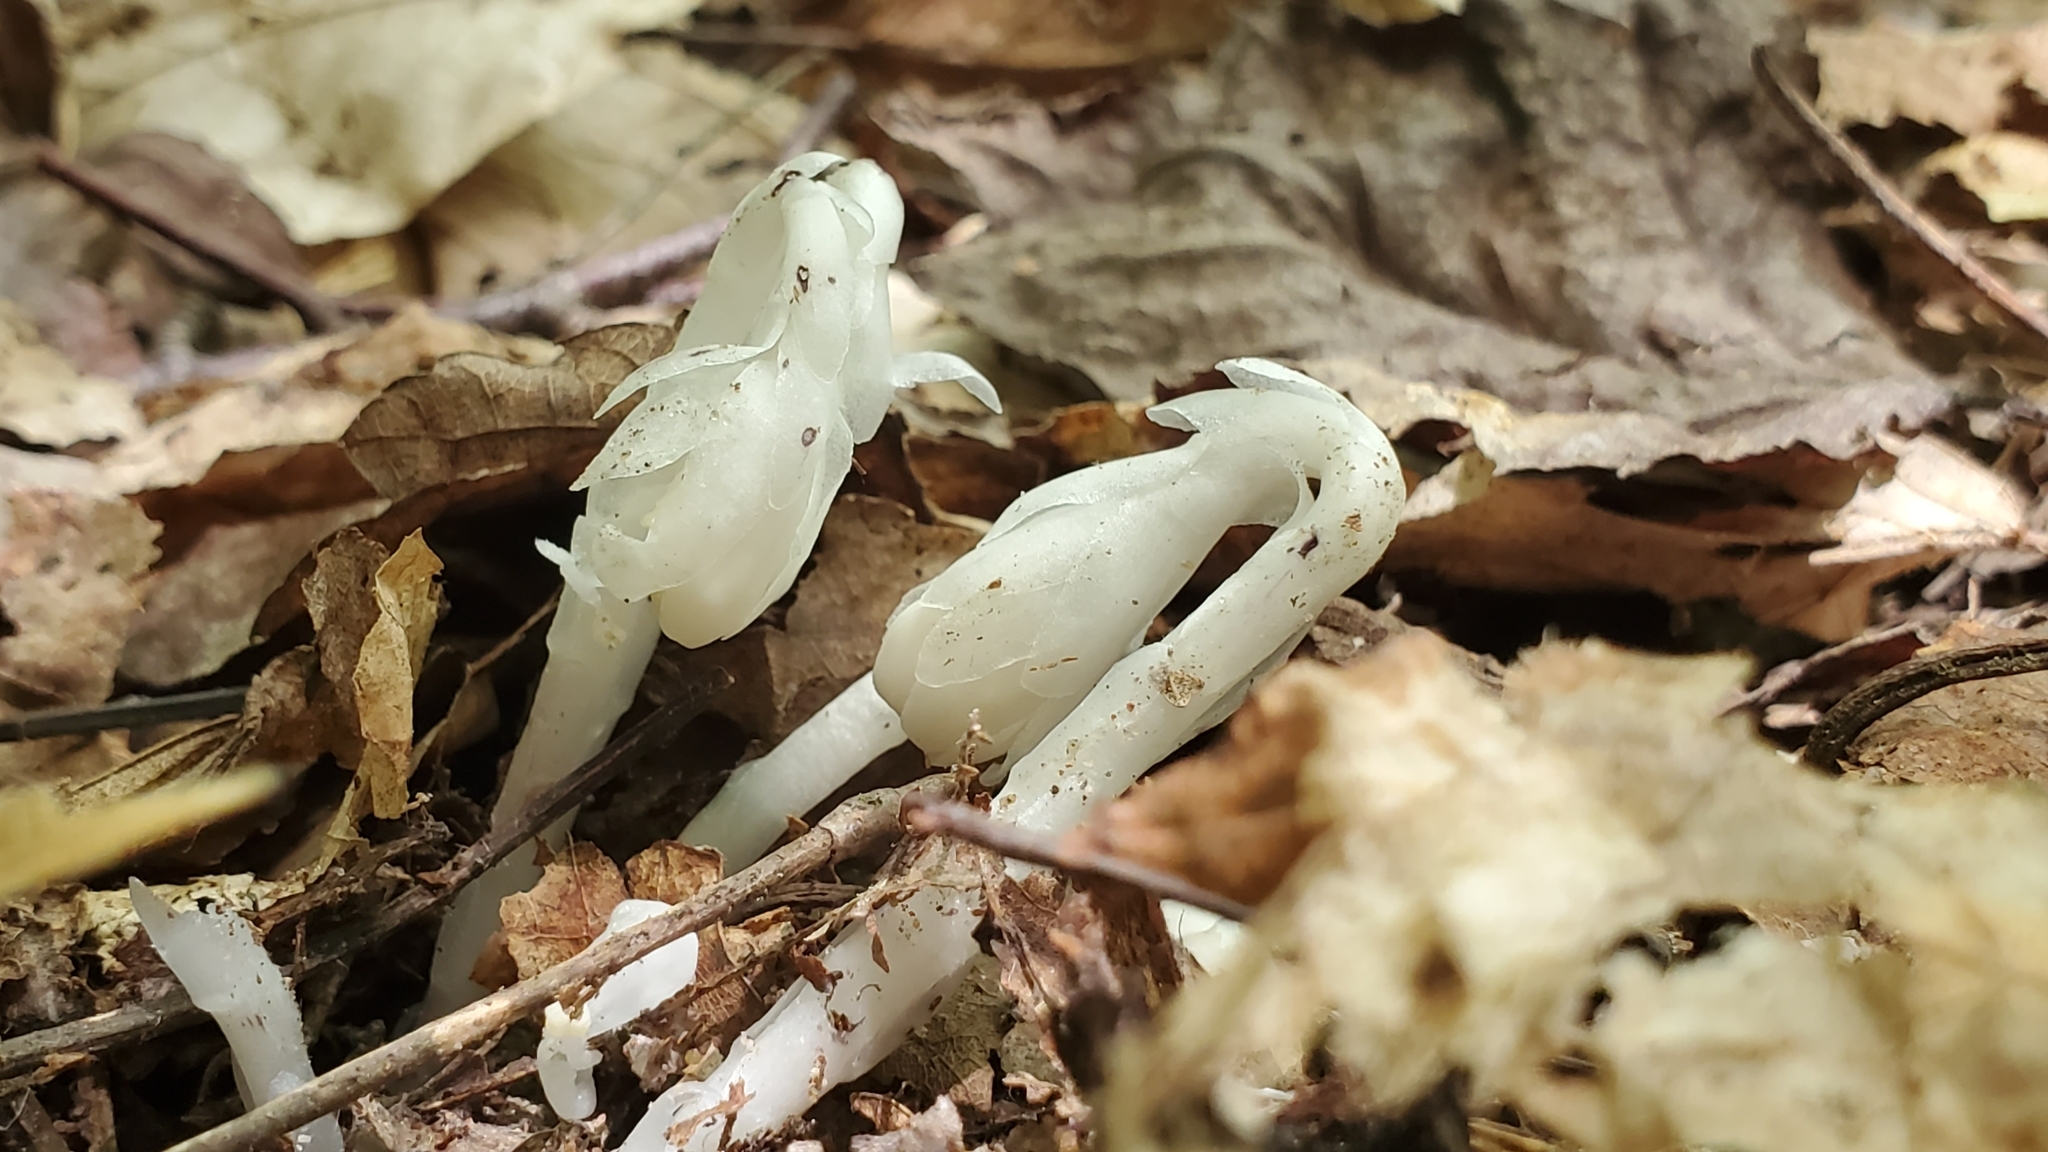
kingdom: Plantae
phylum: Tracheophyta
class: Magnoliopsida
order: Ericales
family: Ericaceae
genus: Monotropa
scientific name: Monotropa uniflora
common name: Convulsion root
